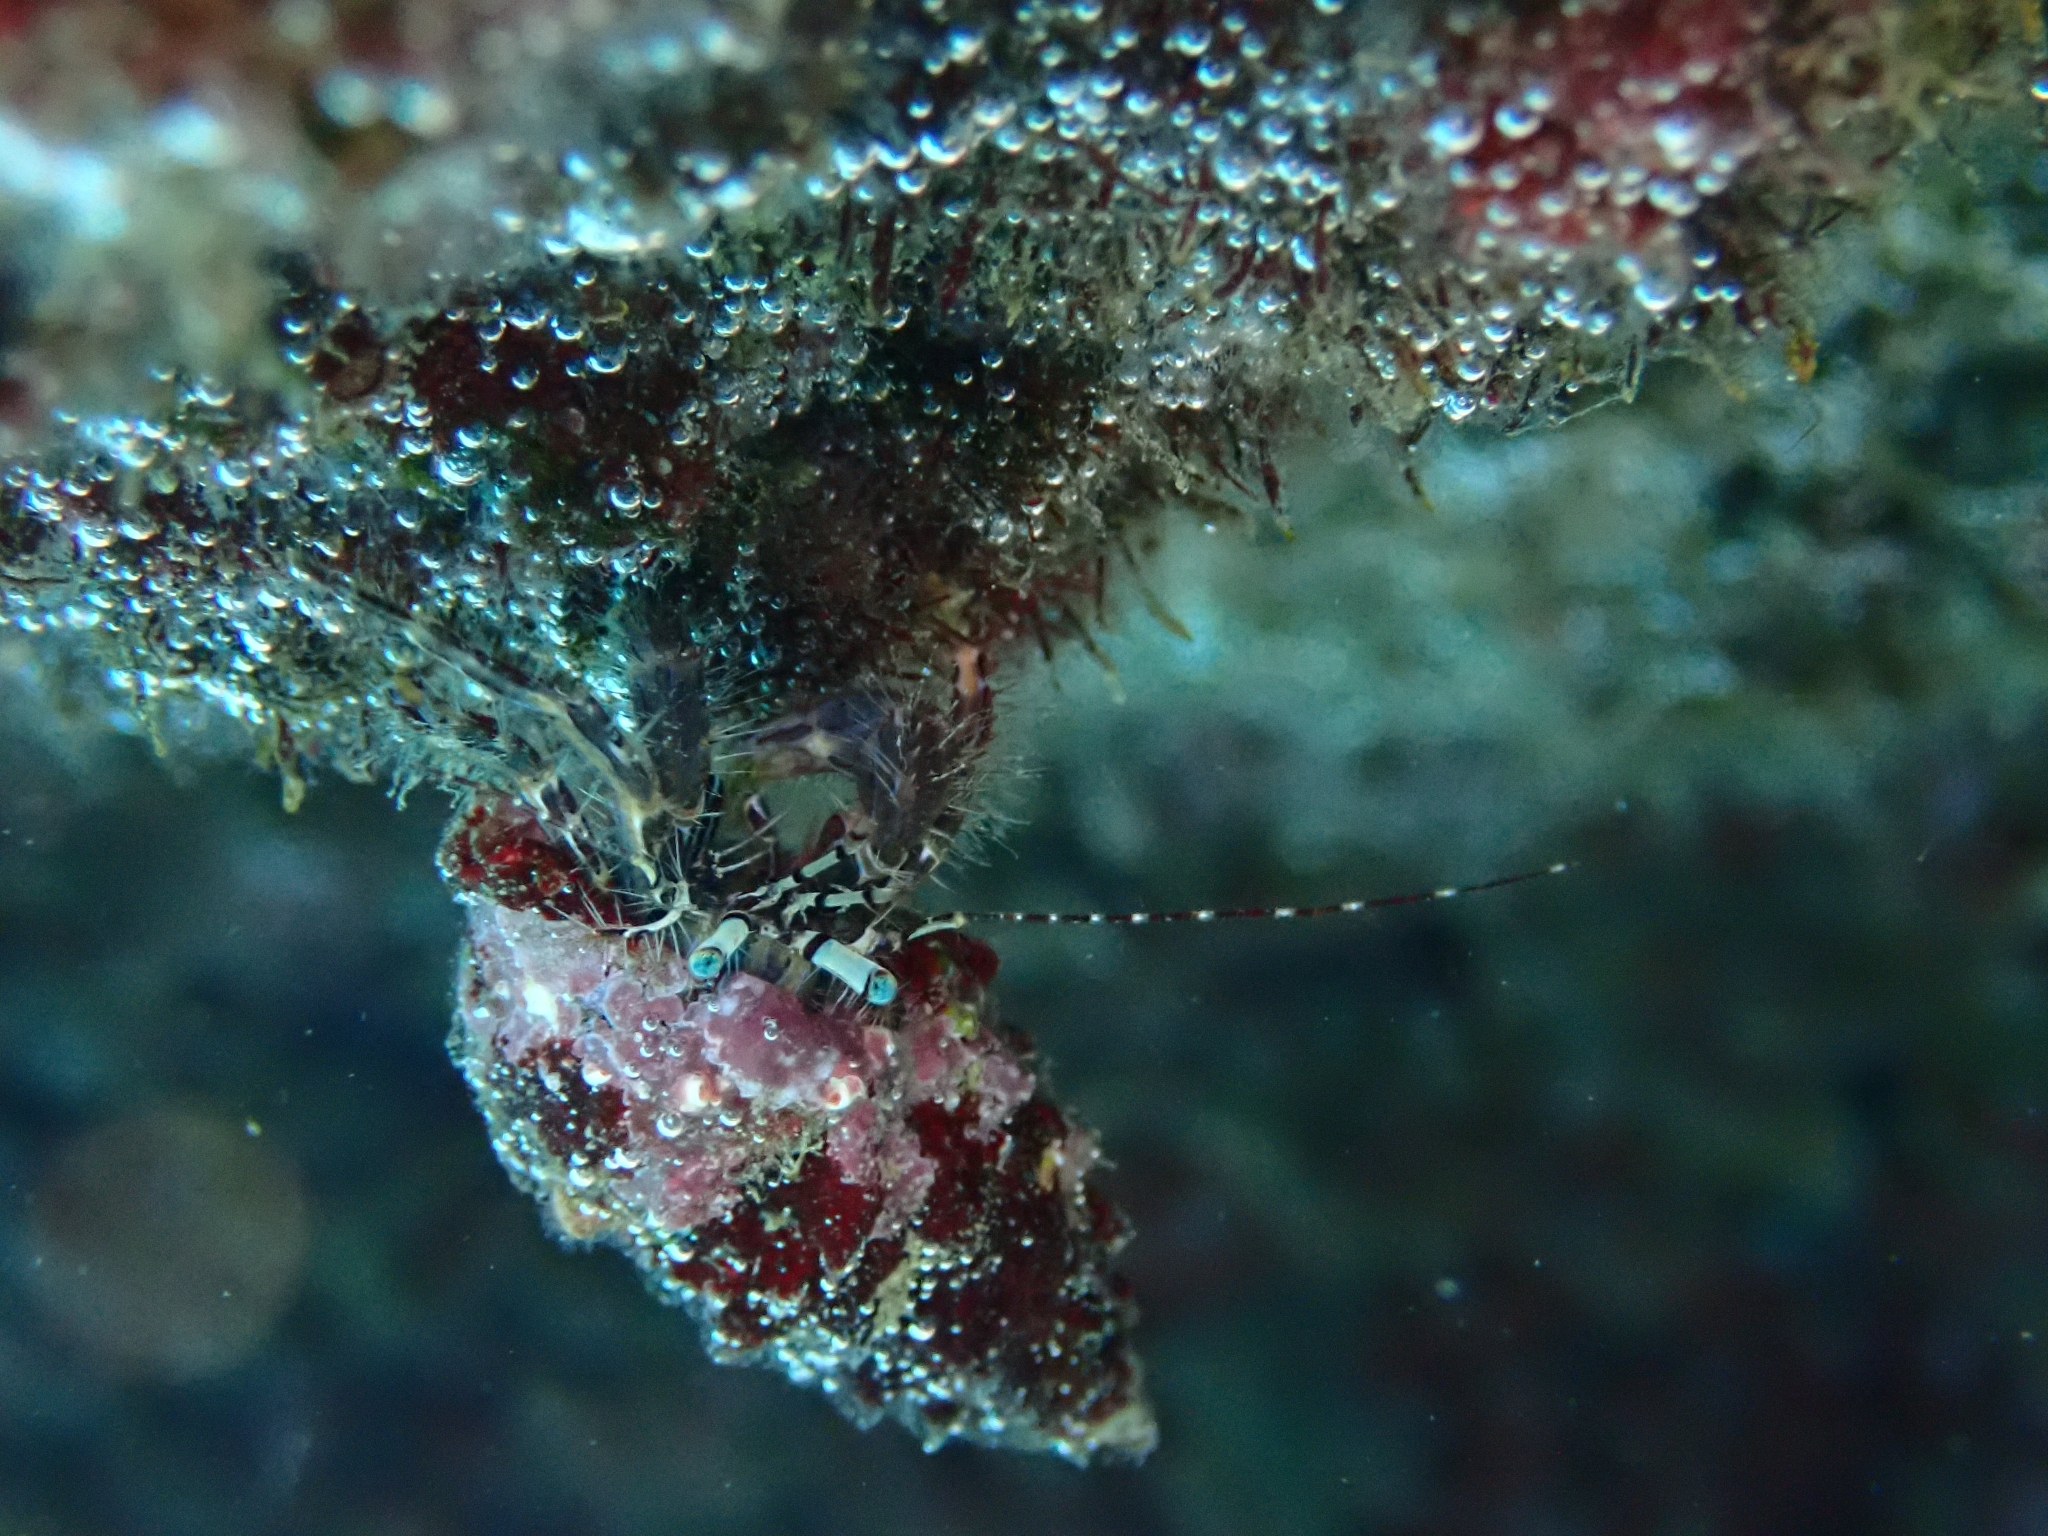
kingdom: Animalia
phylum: Arthropoda
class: Malacostraca
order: Decapoda
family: Paguridae
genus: Pagurus
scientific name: Pagurus anachoretus
